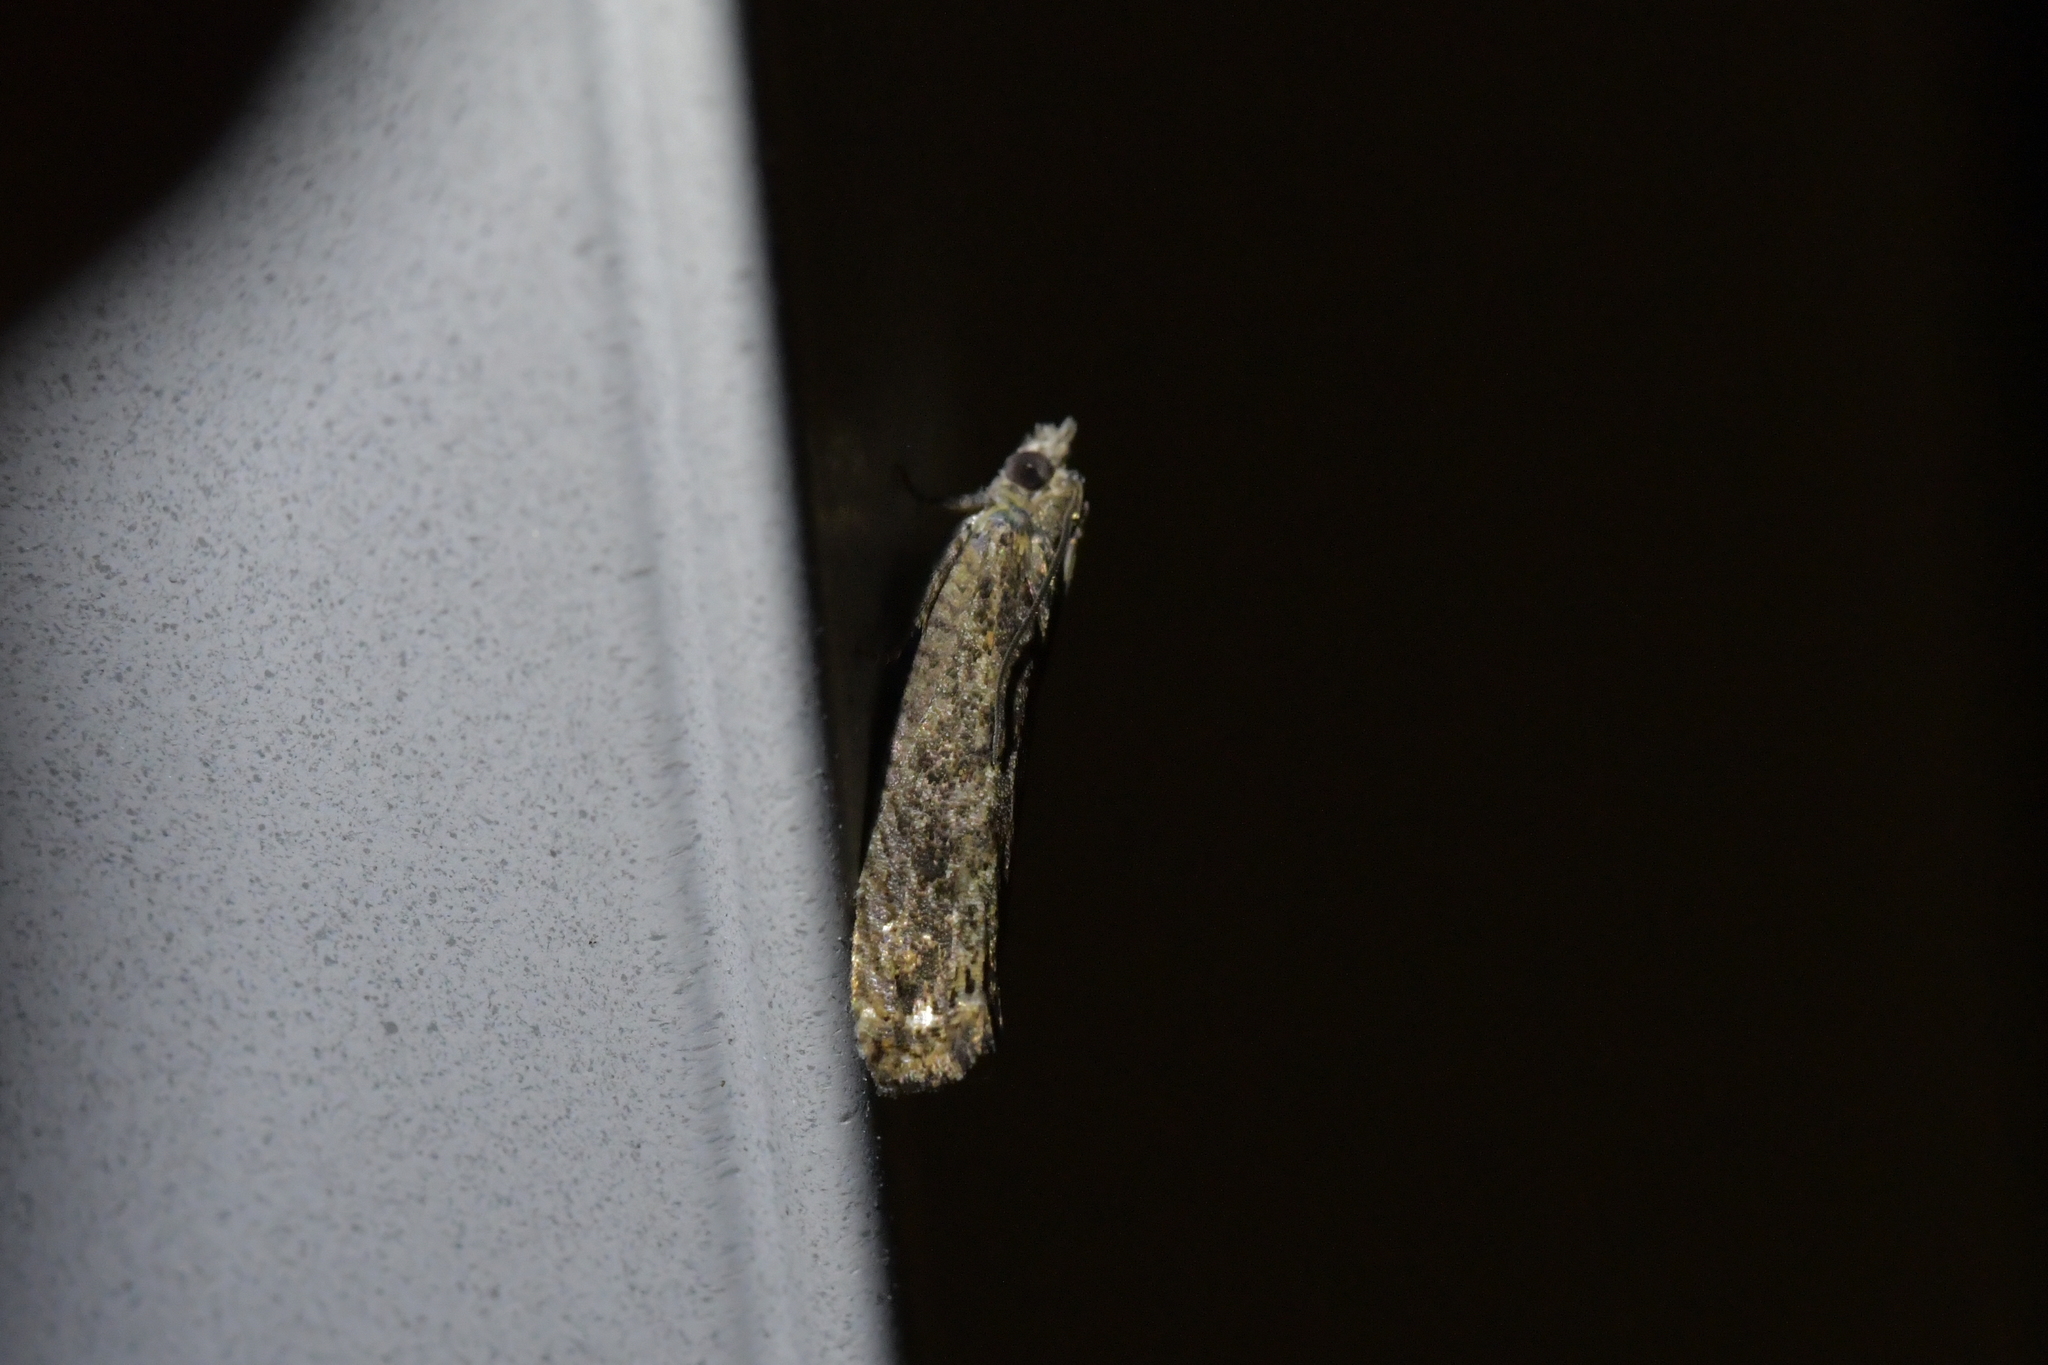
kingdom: Animalia
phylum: Arthropoda
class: Insecta
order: Lepidoptera
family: Tortricidae
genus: Strepsicrates
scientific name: Strepsicrates ejectana
